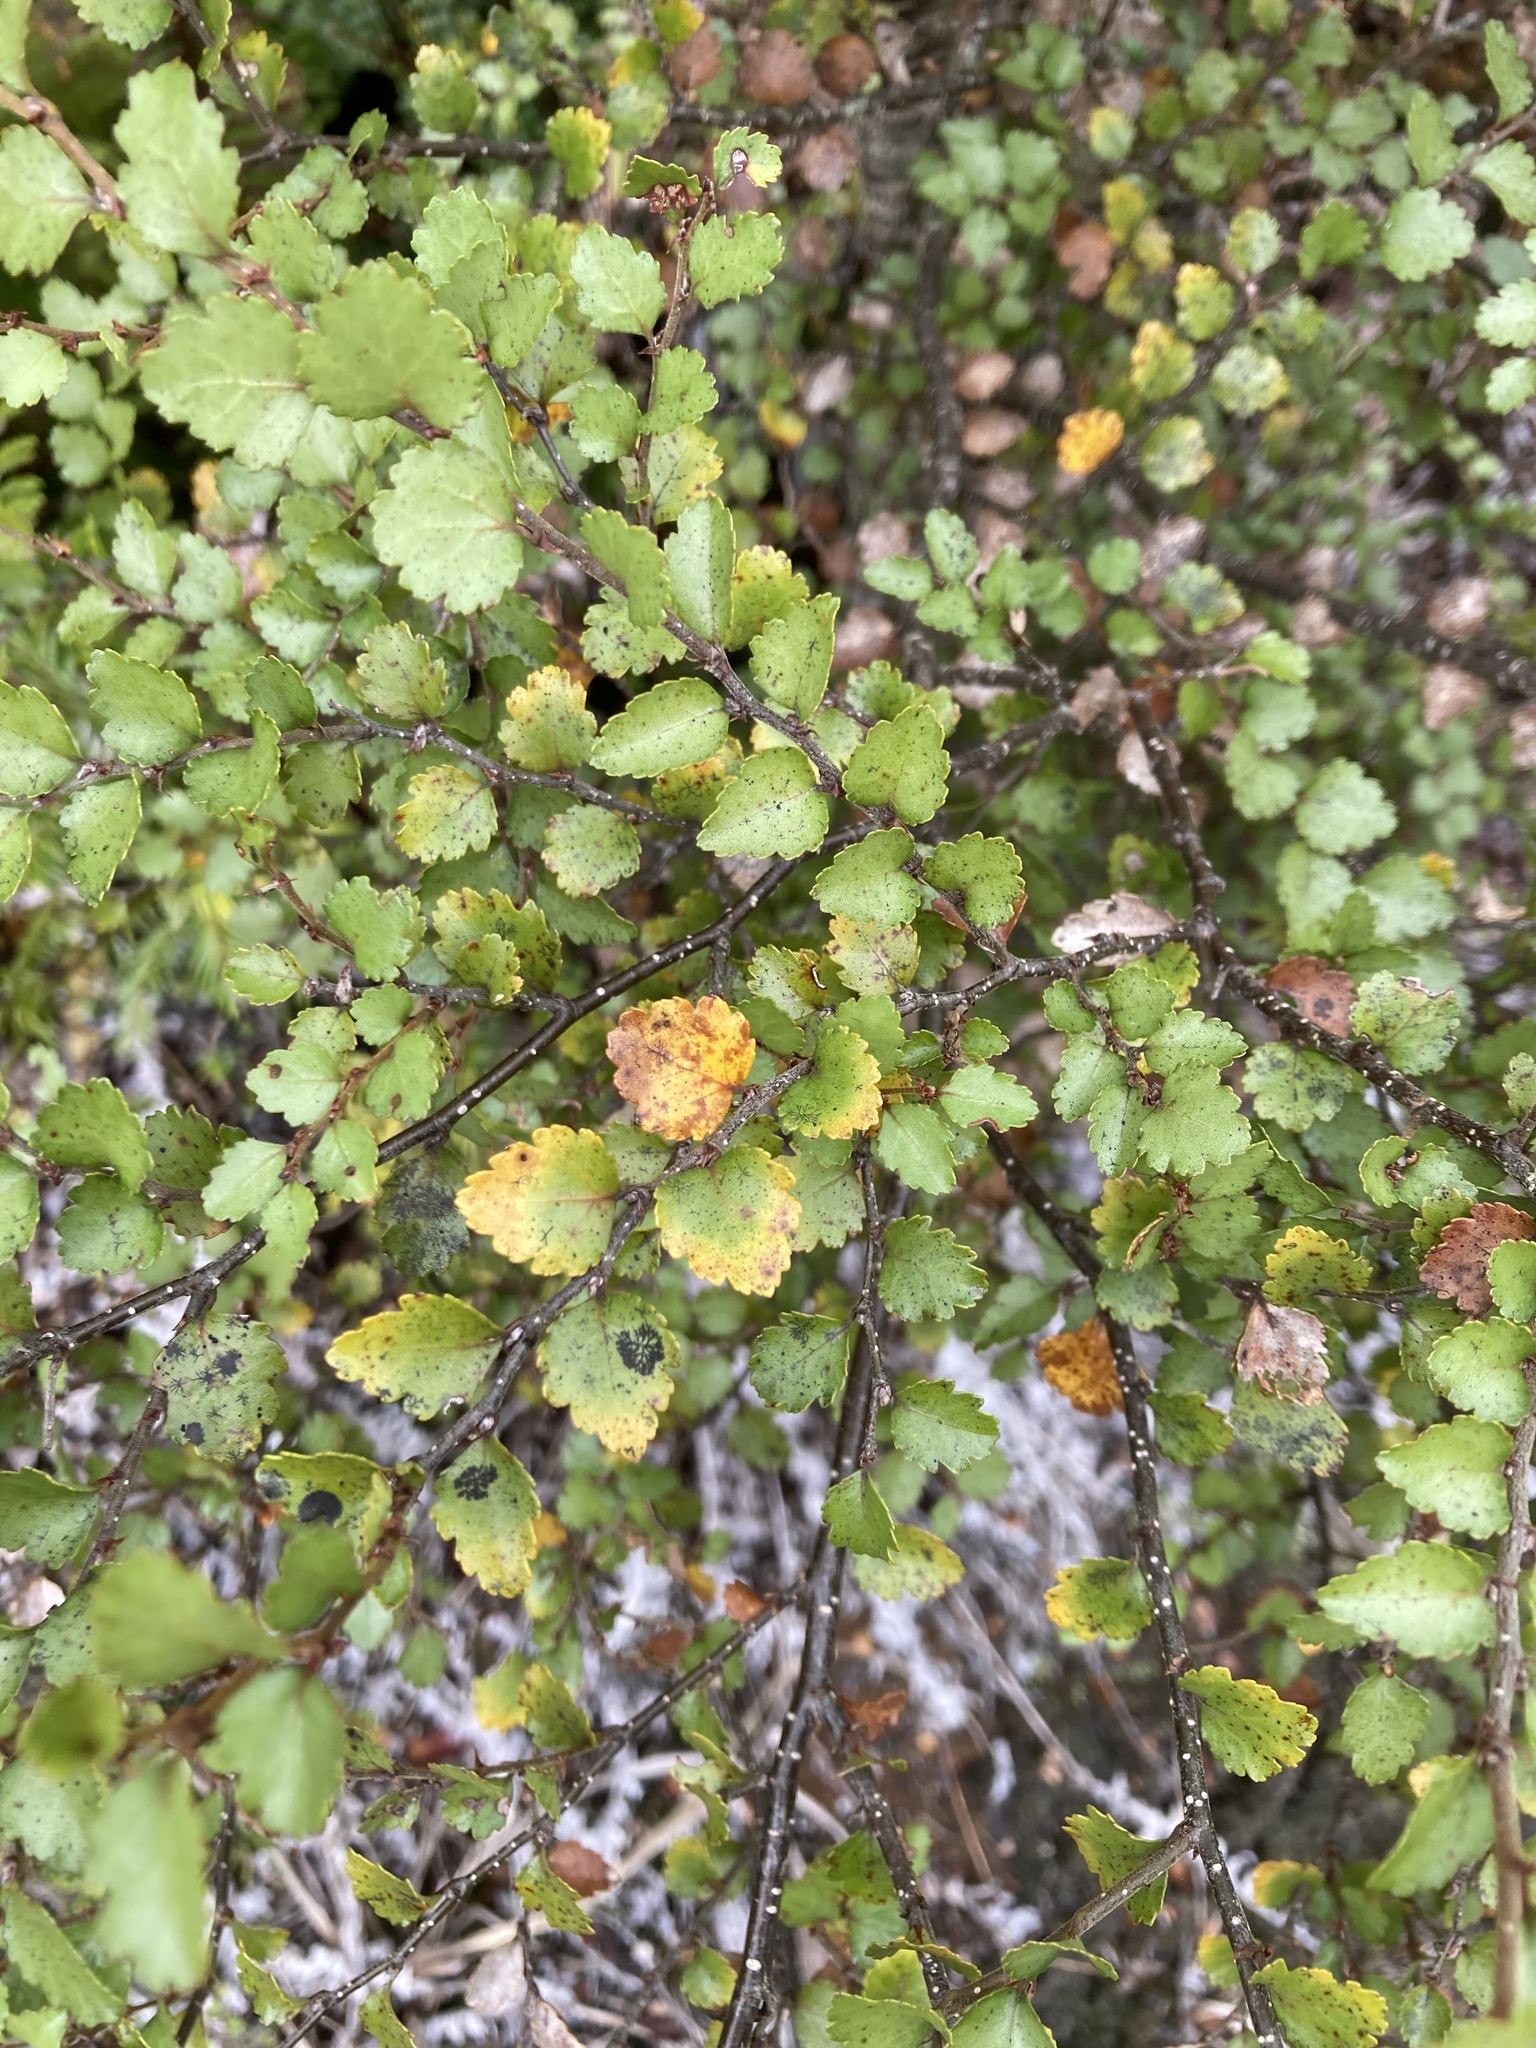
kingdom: Plantae
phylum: Tracheophyta
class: Magnoliopsida
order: Fagales
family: Nothofagaceae
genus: Nothofagus
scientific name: Nothofagus menziesii
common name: Silver beech
